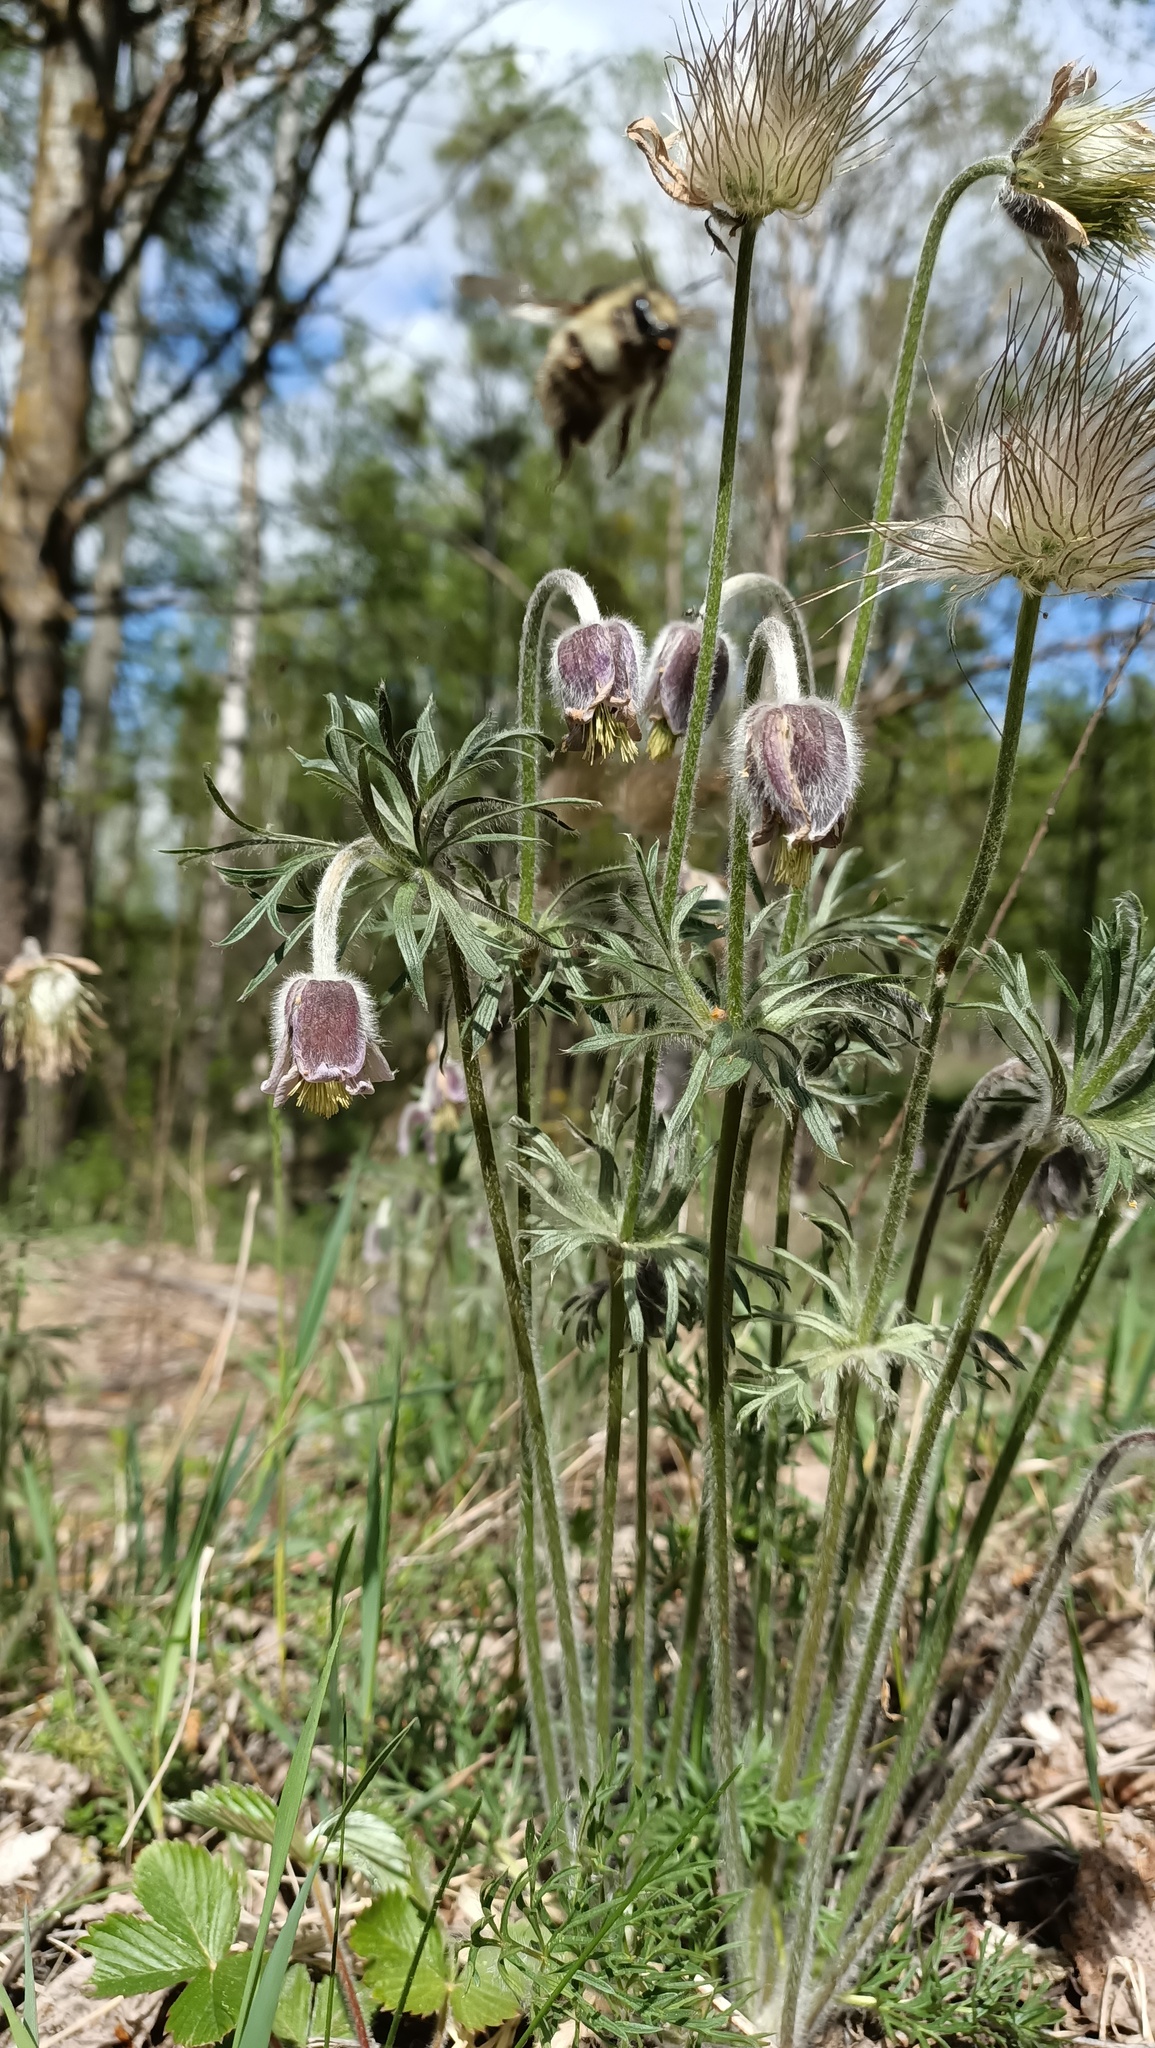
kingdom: Plantae
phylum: Tracheophyta
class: Magnoliopsida
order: Ranunculales
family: Ranunculaceae
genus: Pulsatilla
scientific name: Pulsatilla pratensis
